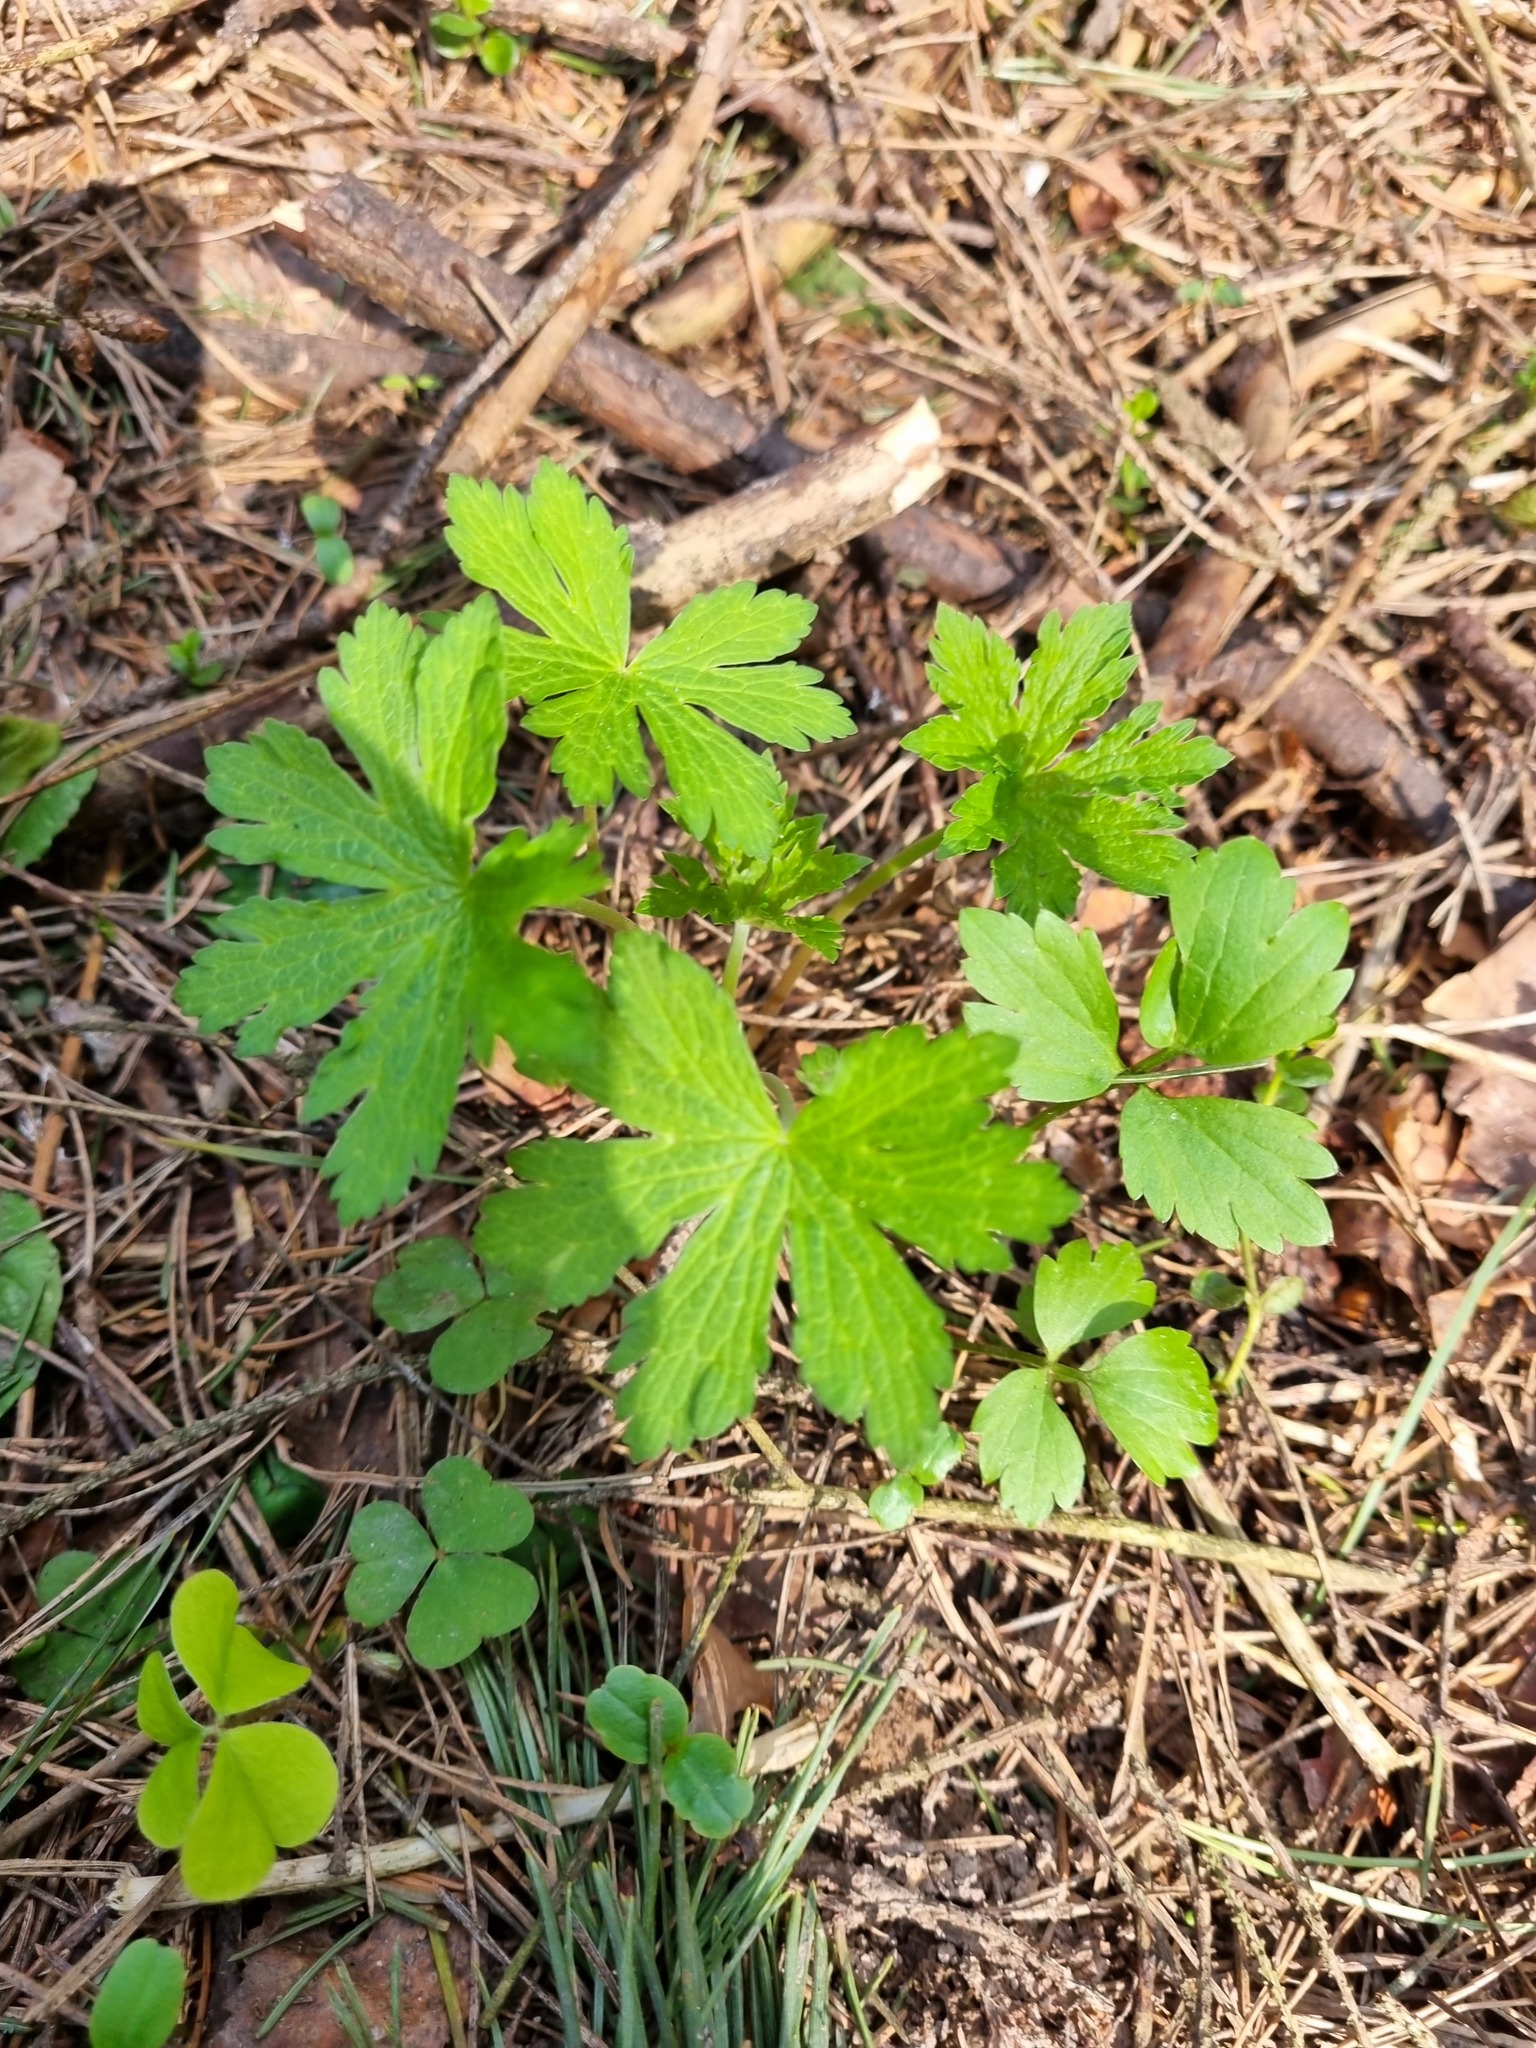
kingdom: Plantae
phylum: Tracheophyta
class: Magnoliopsida
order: Geraniales
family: Geraniaceae
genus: Geranium
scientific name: Geranium sylvaticum
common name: Wood crane's-bill
